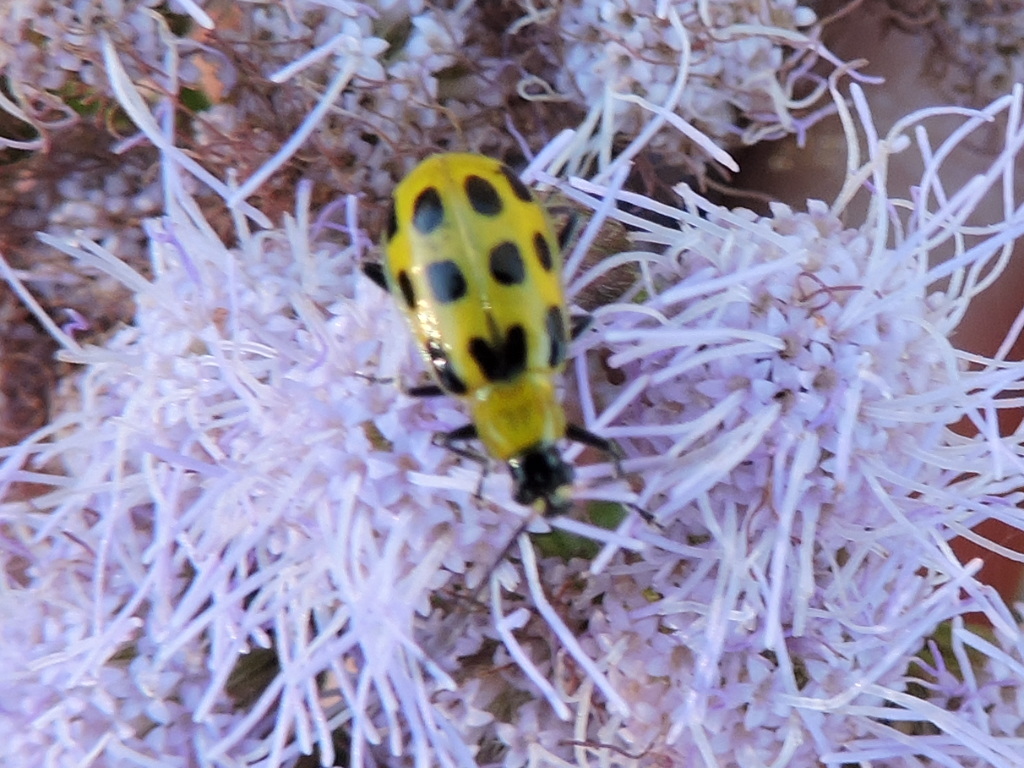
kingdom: Animalia
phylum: Arthropoda
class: Insecta
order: Coleoptera
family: Chrysomelidae
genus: Diabrotica
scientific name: Diabrotica undecimpunctata
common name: Spotted cucumber beetle
